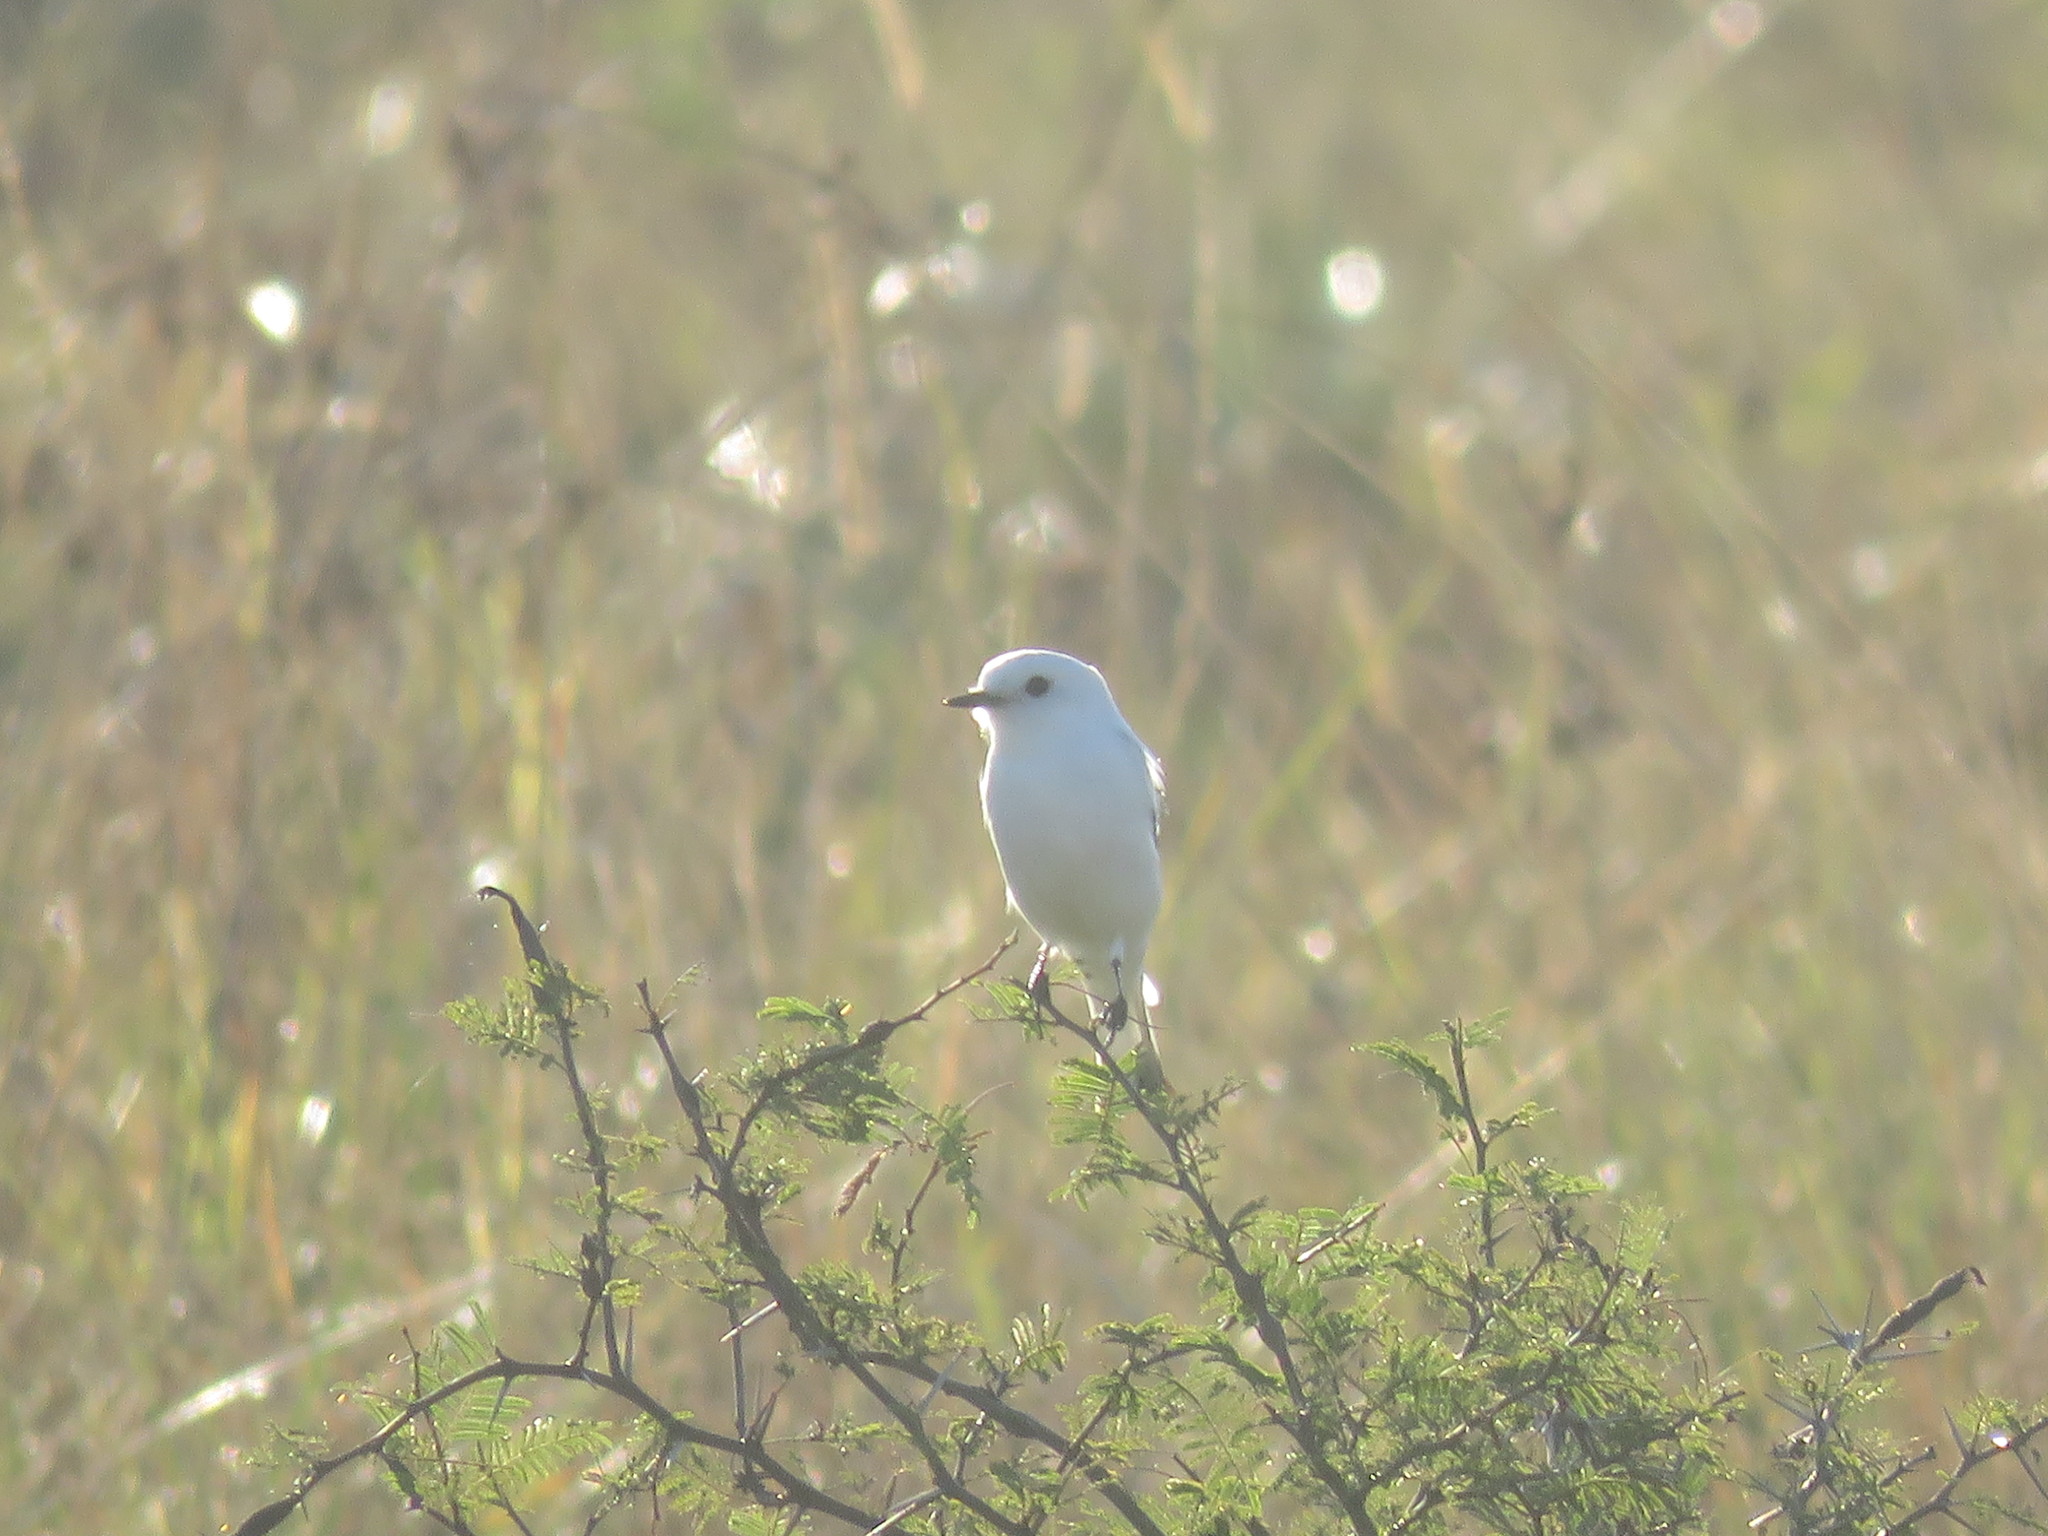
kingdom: Animalia
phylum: Chordata
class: Aves
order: Passeriformes
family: Tyrannidae
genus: Xolmis
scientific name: Xolmis irupero
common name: White monjita
